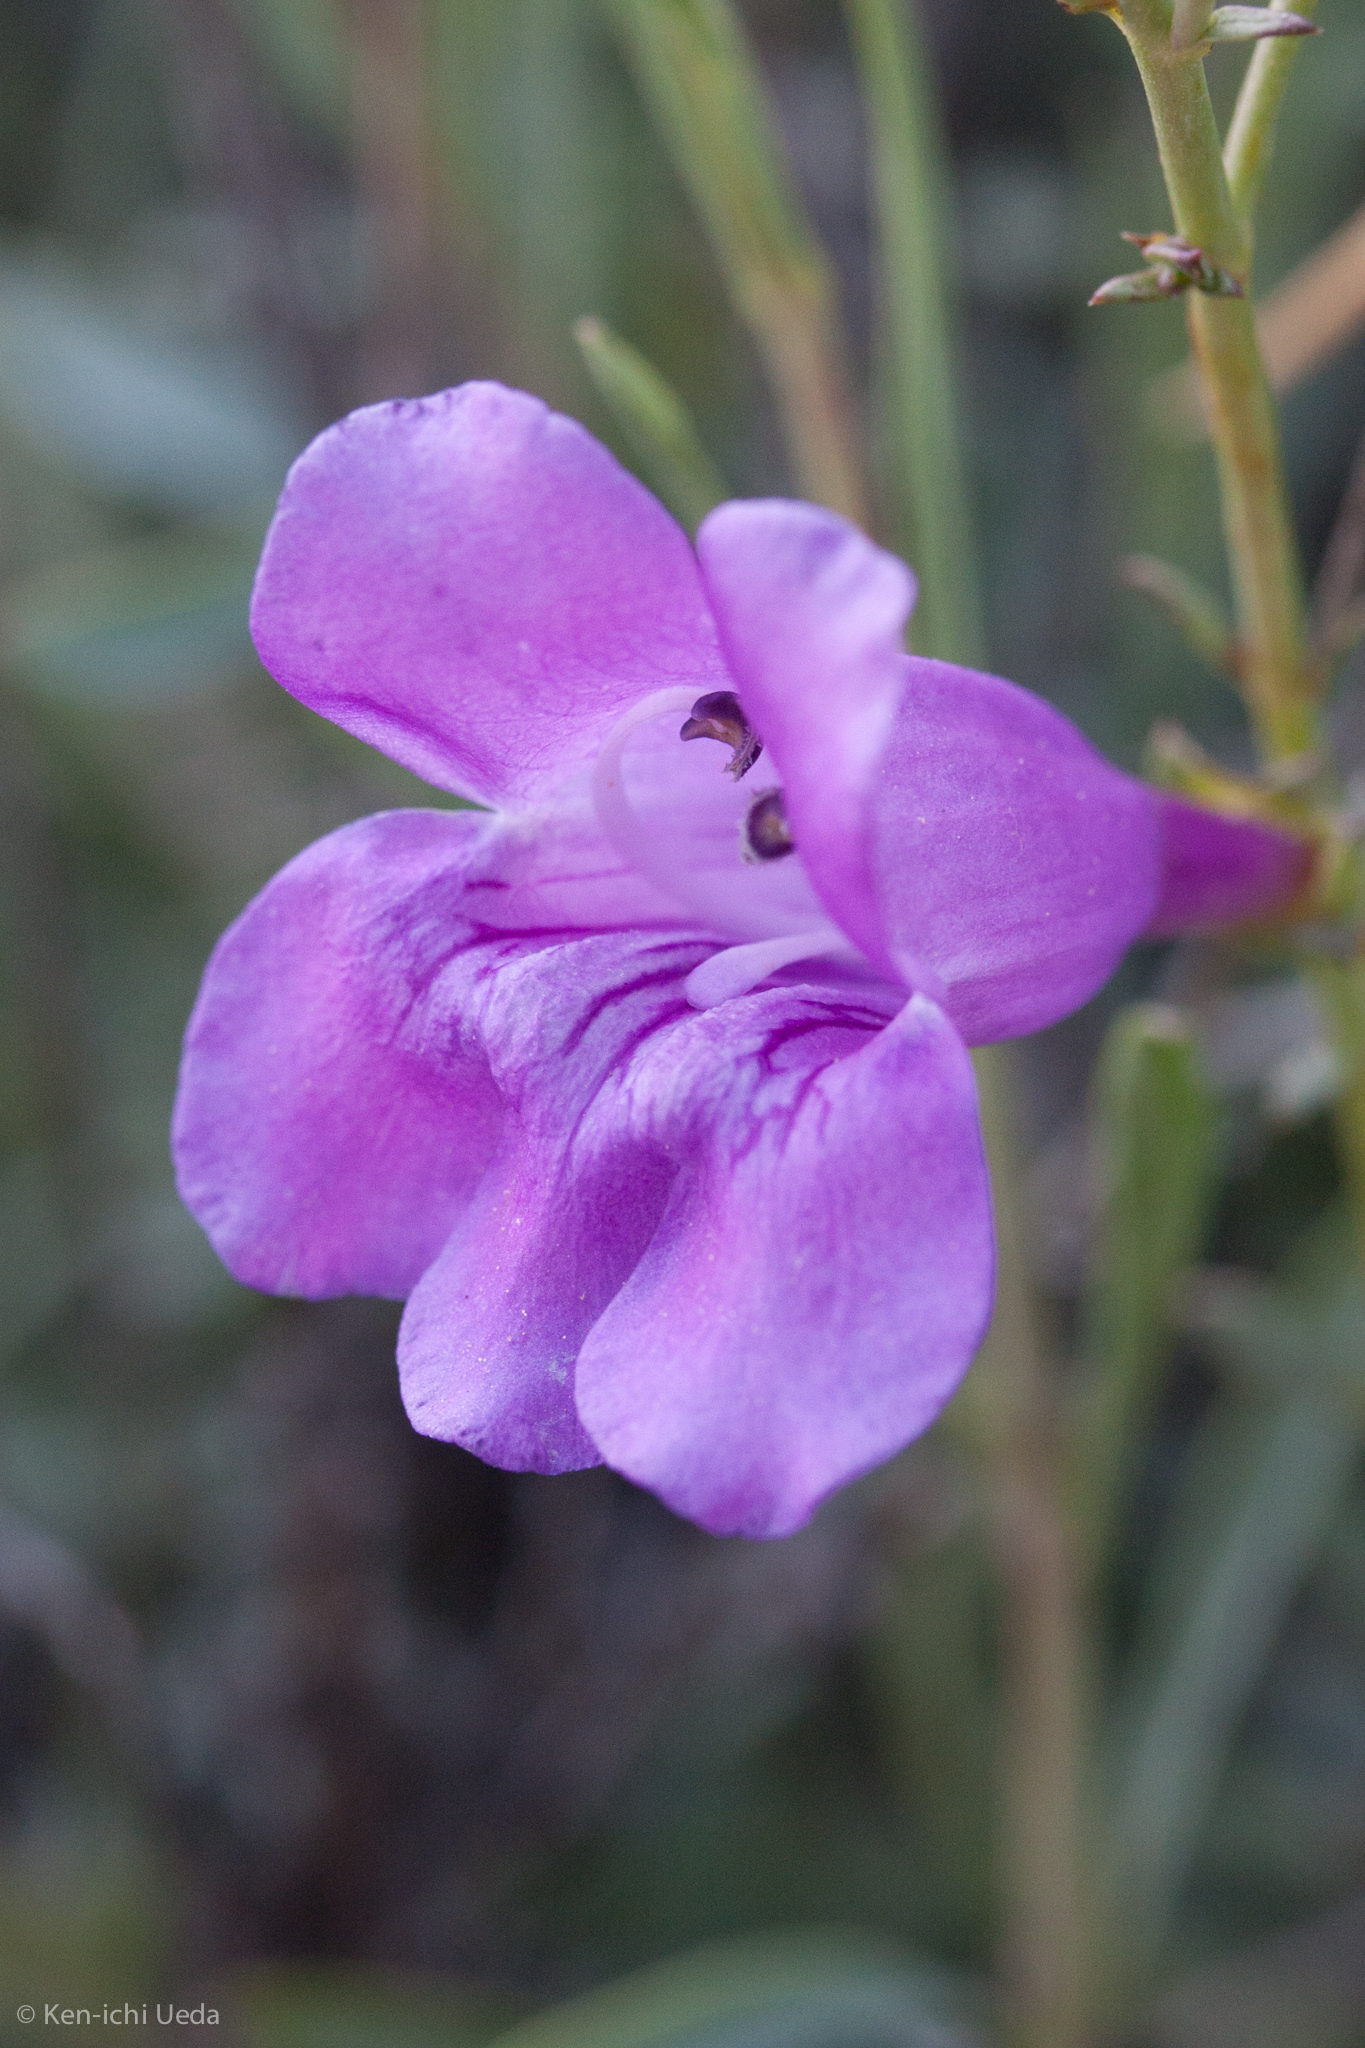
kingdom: Plantae
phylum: Tracheophyta
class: Magnoliopsida
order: Lamiales
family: Plantaginaceae
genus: Penstemon
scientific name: Penstemon heterophyllus
